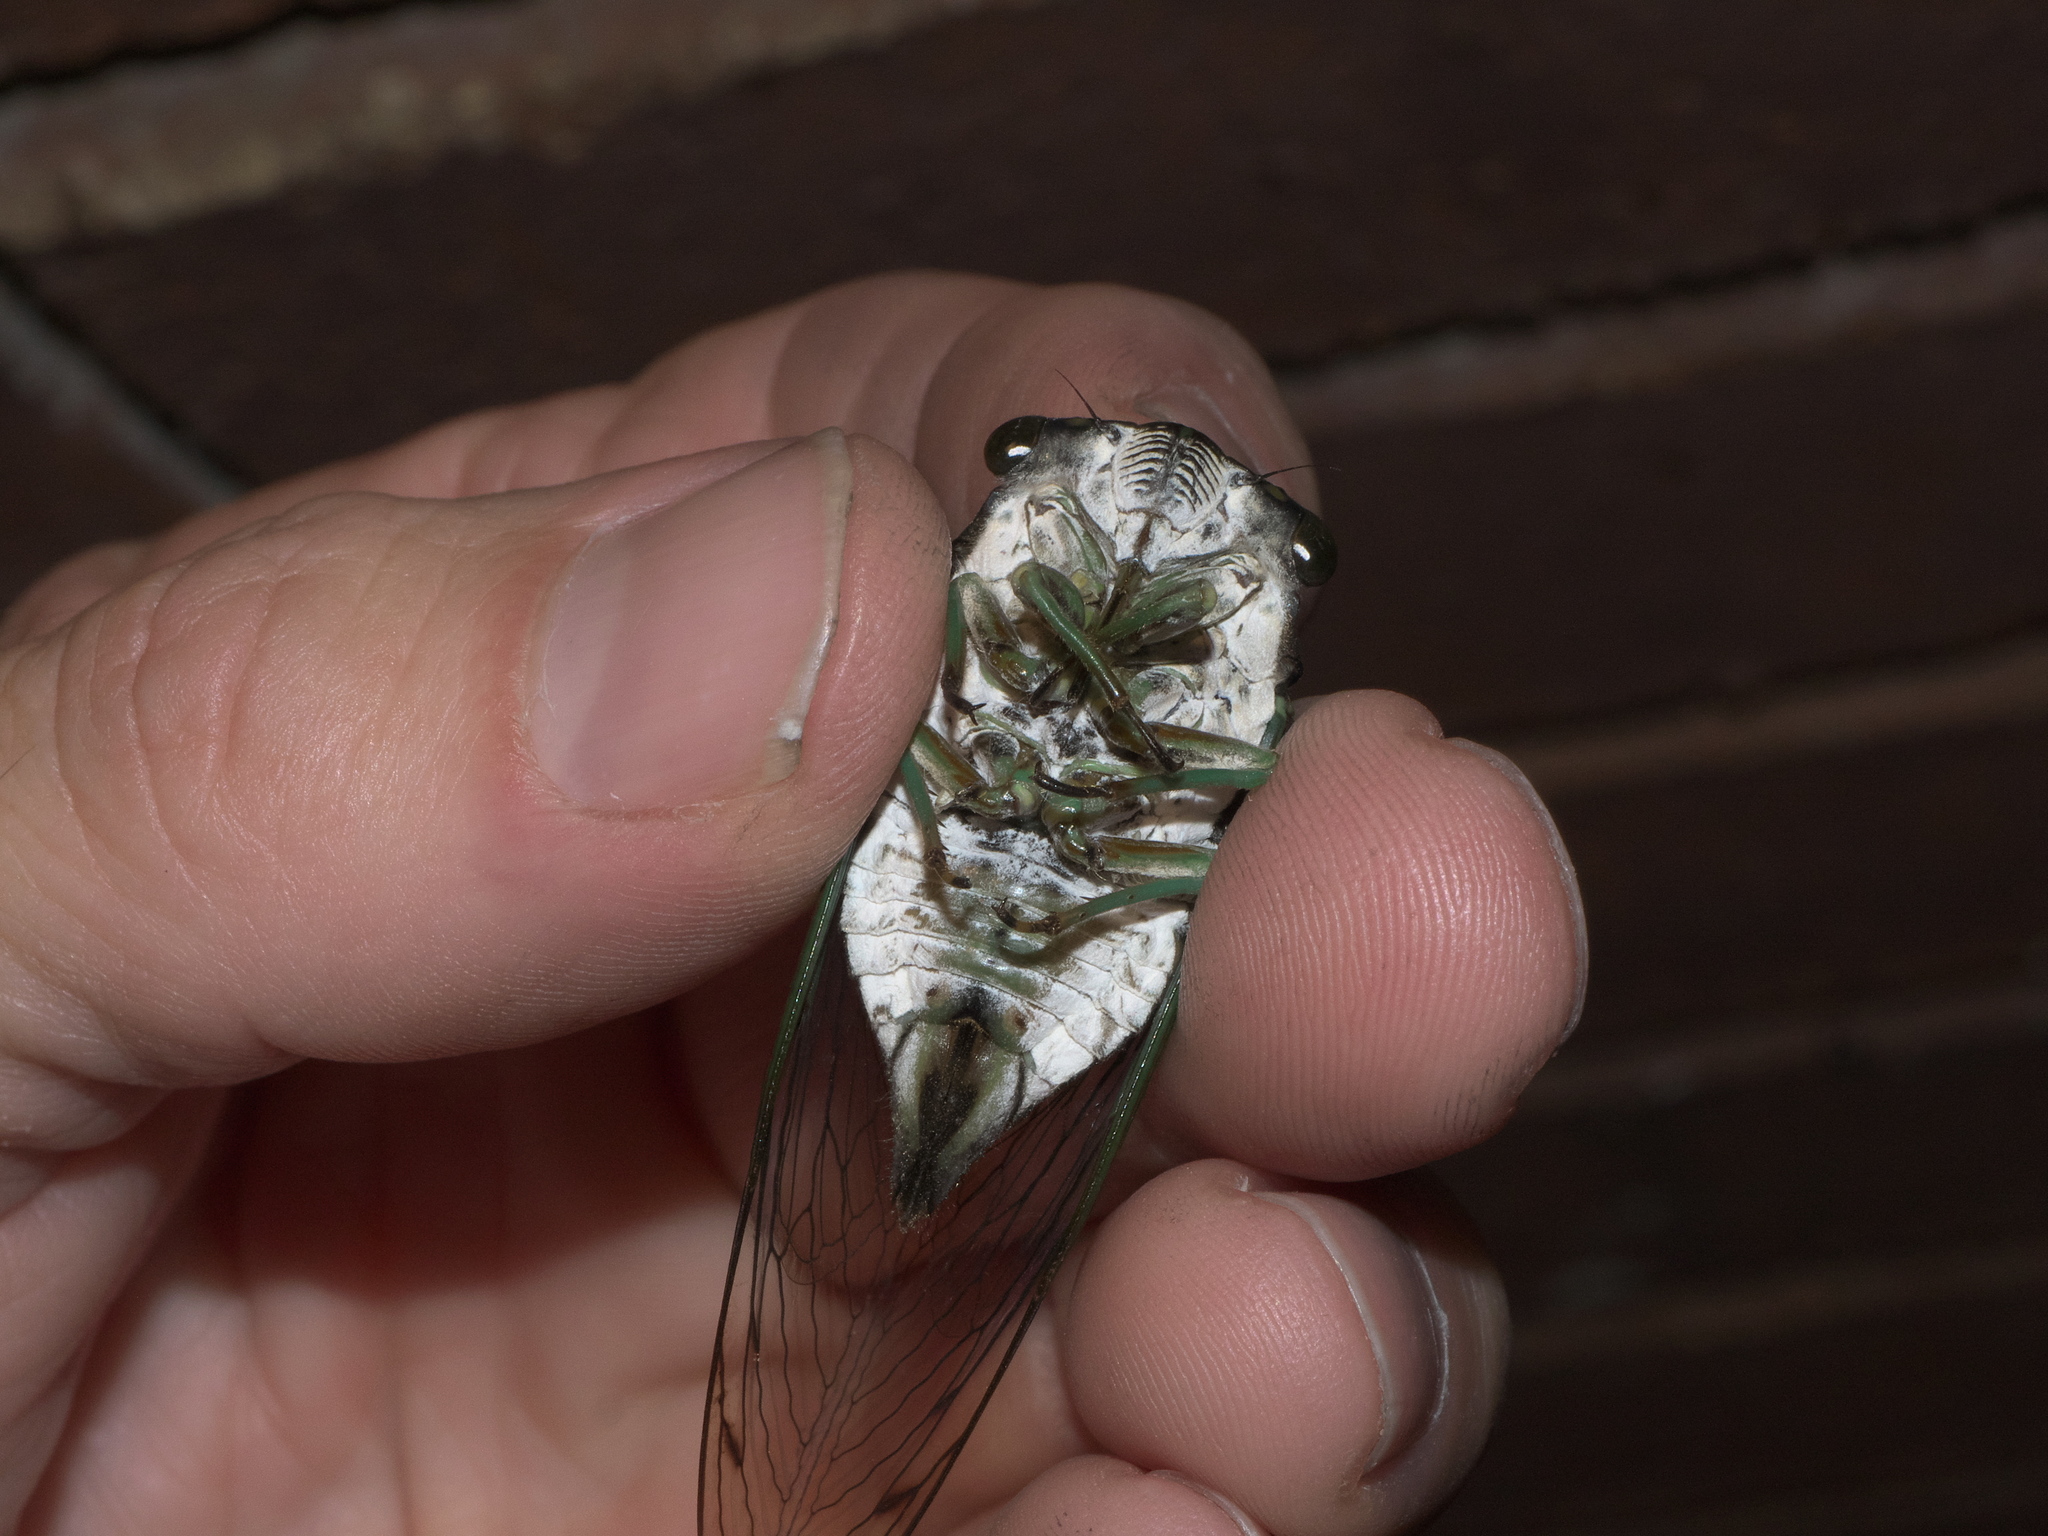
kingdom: Animalia
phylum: Arthropoda
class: Insecta
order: Hemiptera
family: Cicadidae
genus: Neotibicen
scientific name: Neotibicen tibicen
